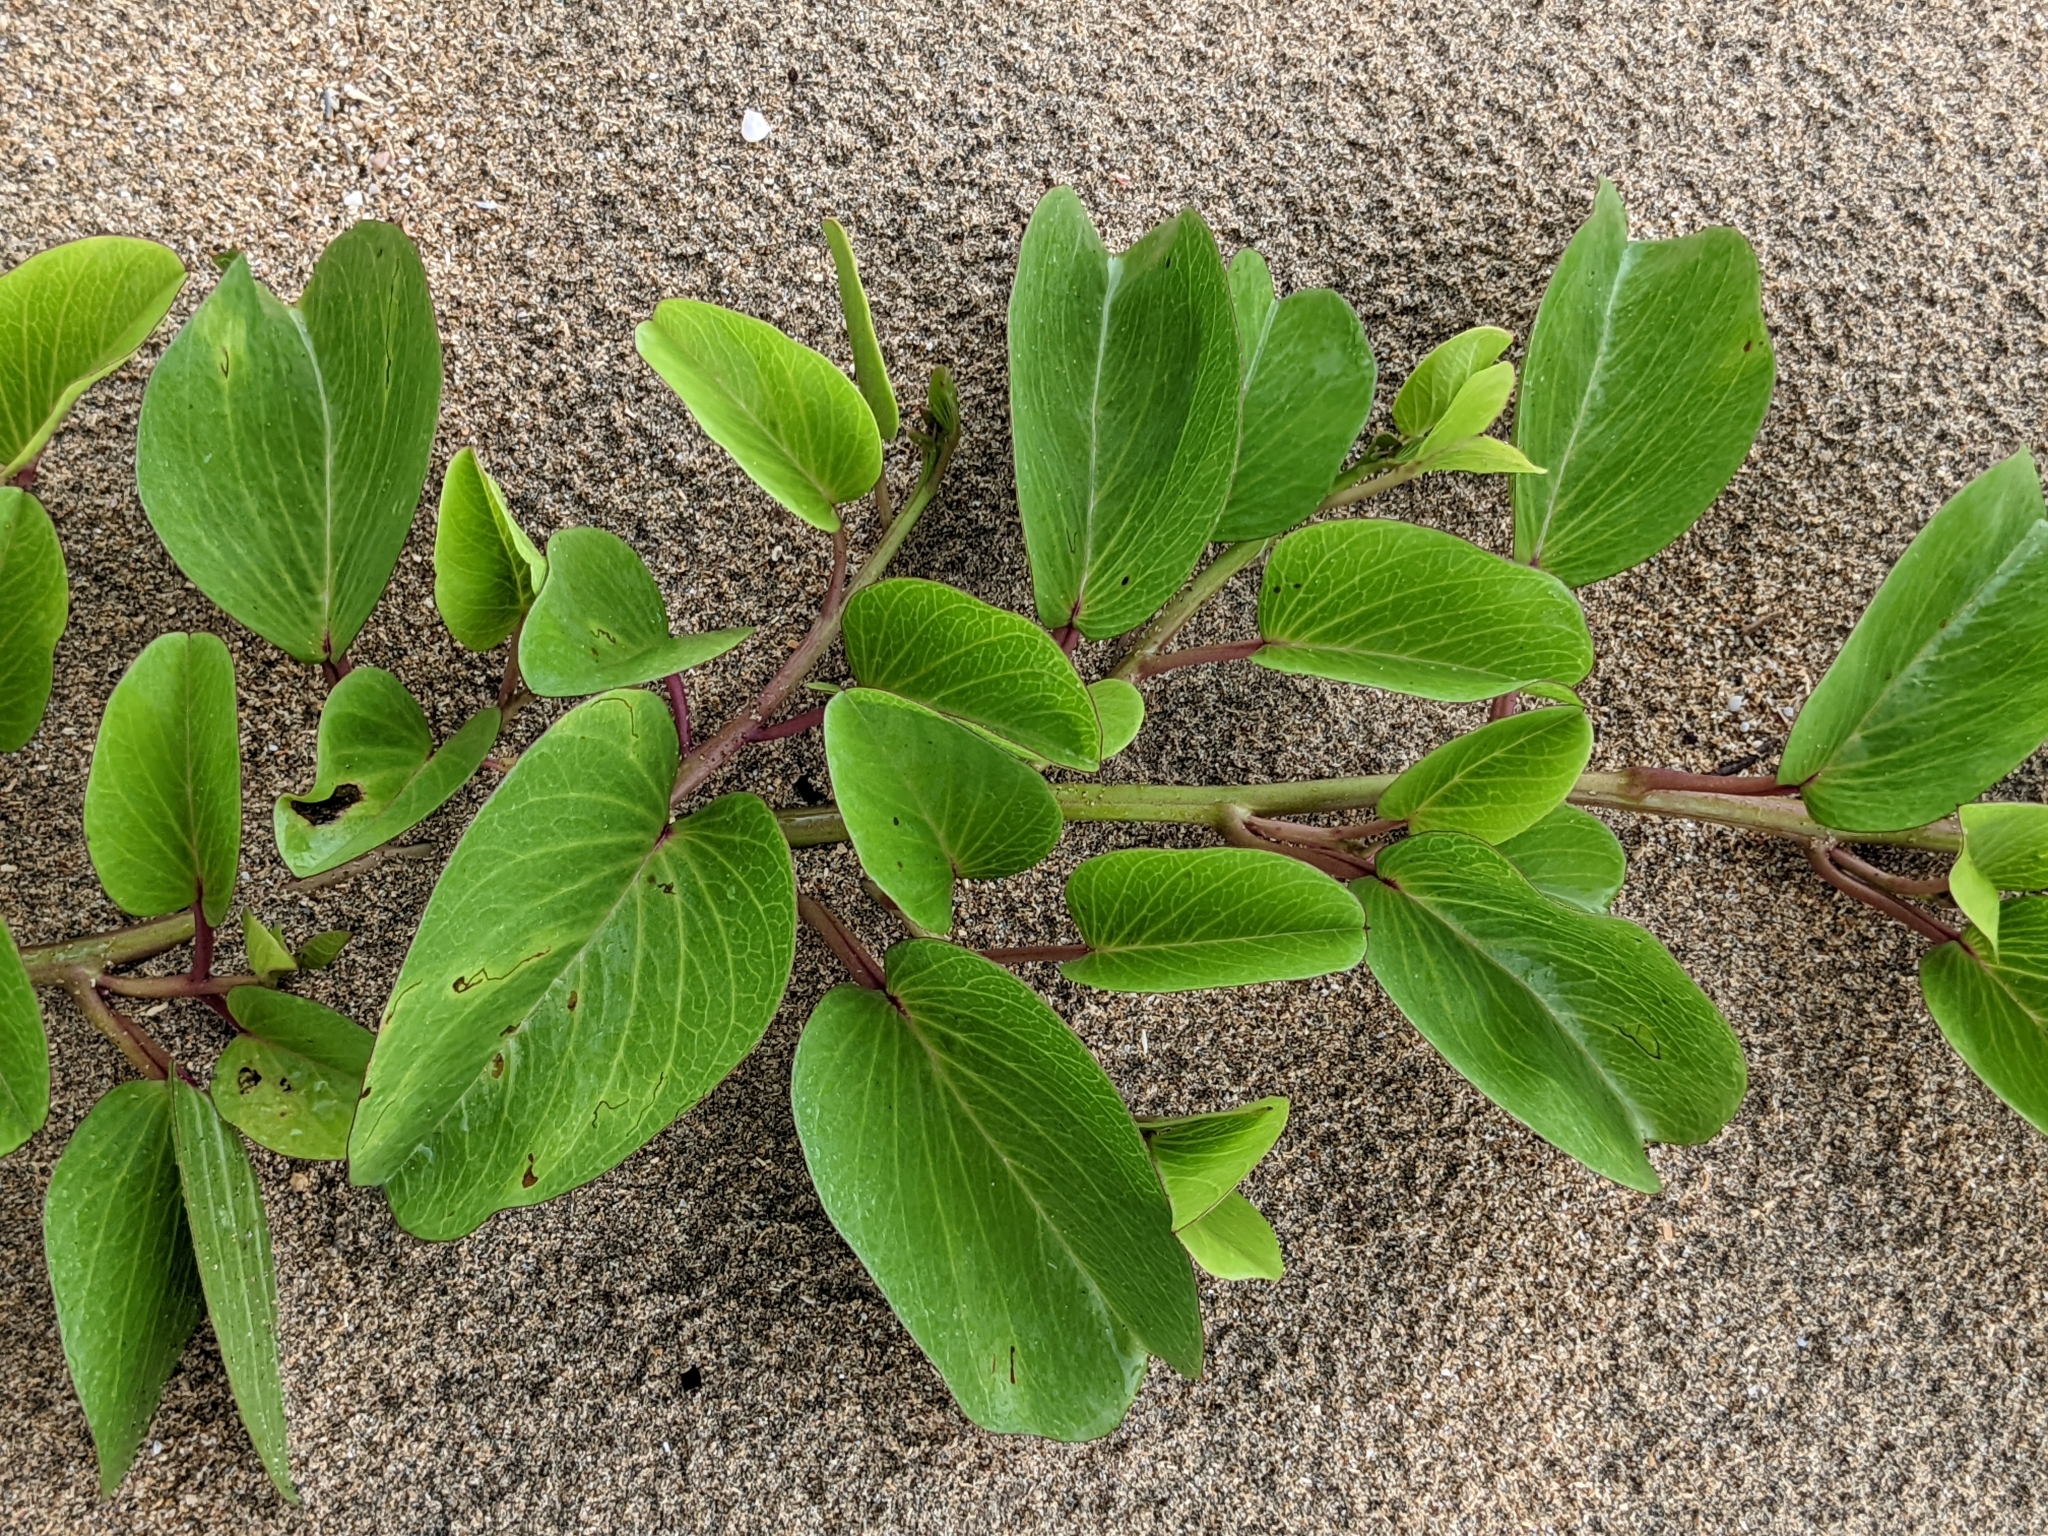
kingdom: Plantae
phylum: Tracheophyta
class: Magnoliopsida
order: Solanales
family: Convolvulaceae
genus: Ipomoea
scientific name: Ipomoea pes-caprae
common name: Beach morning glory
